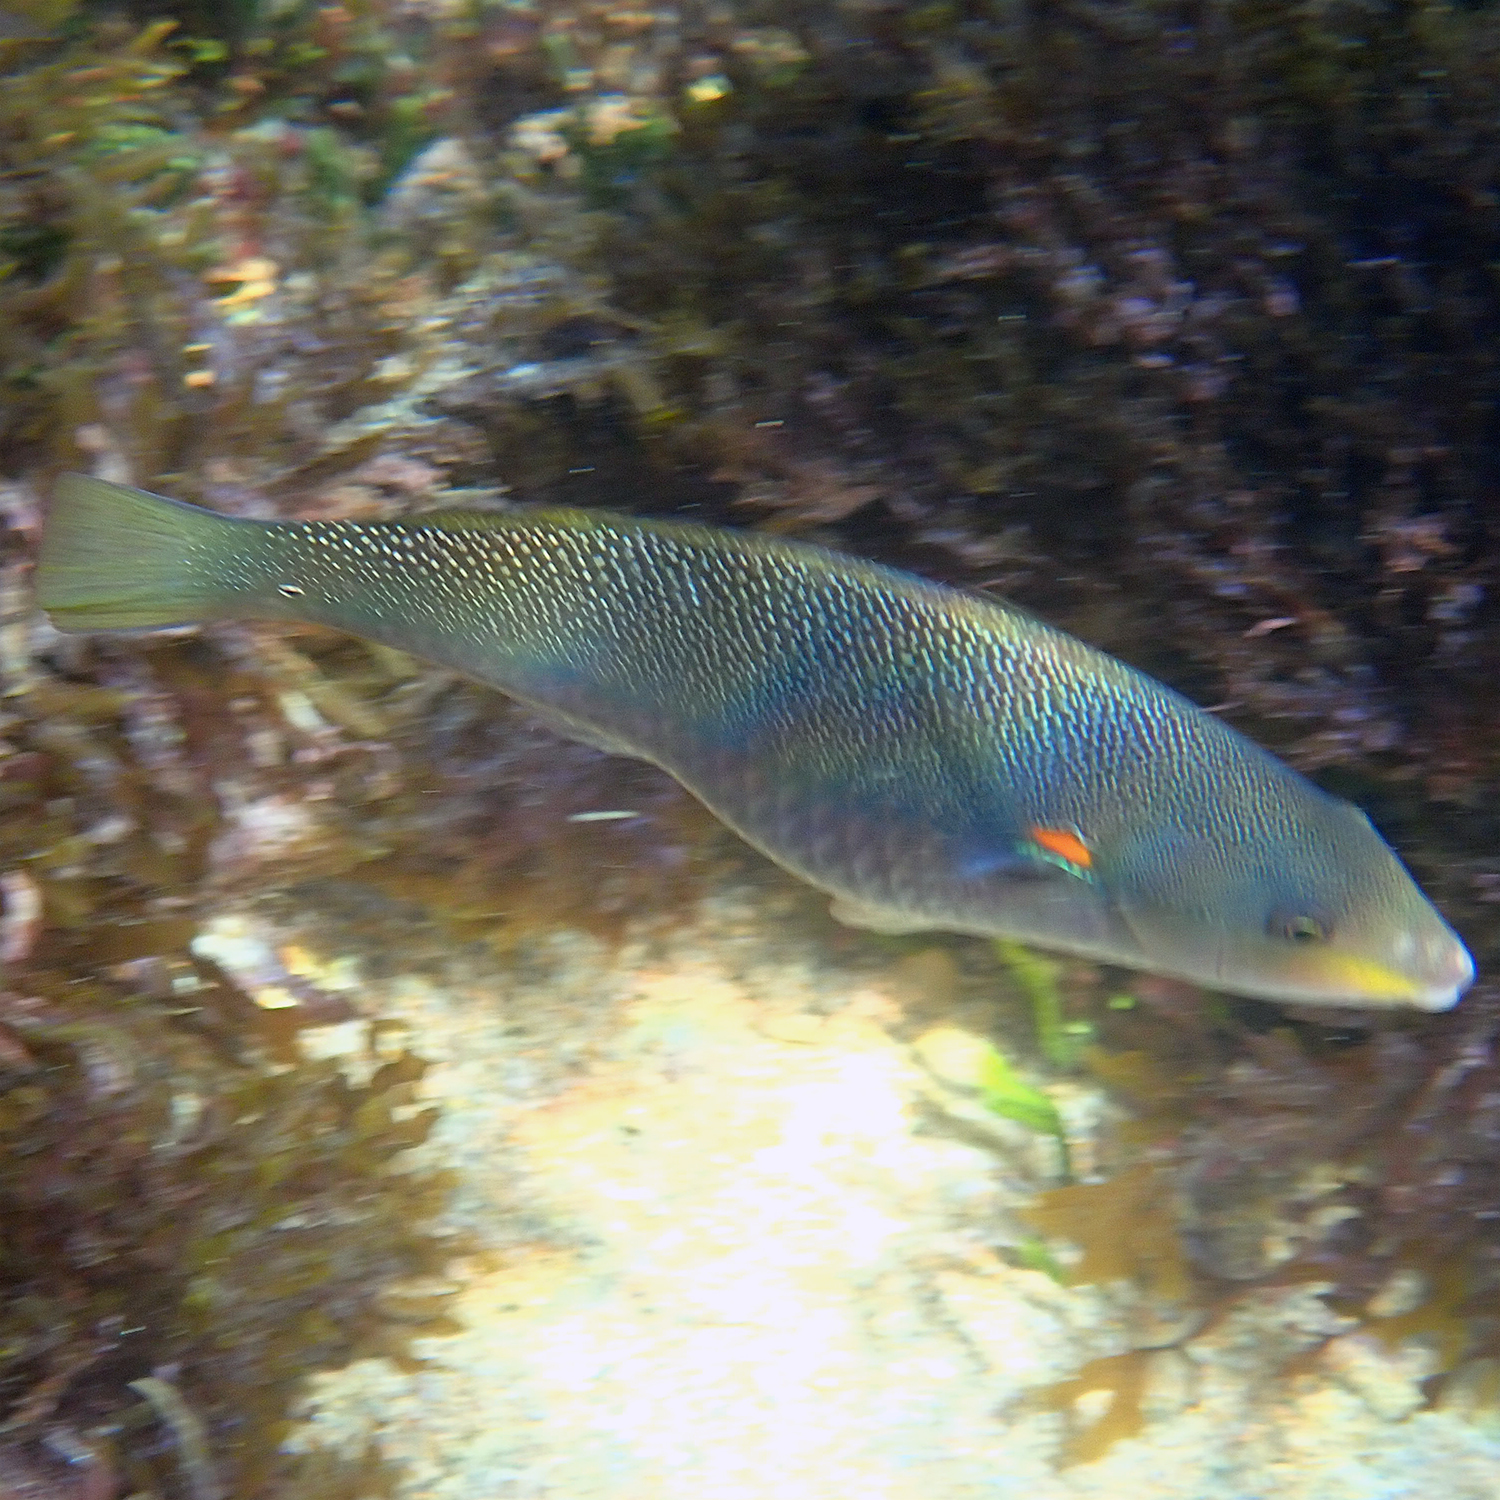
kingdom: Animalia
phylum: Chordata
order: Perciformes
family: Labridae
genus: Stethojulis
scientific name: Stethojulis bandanensis
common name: Red shoulder wrasse
